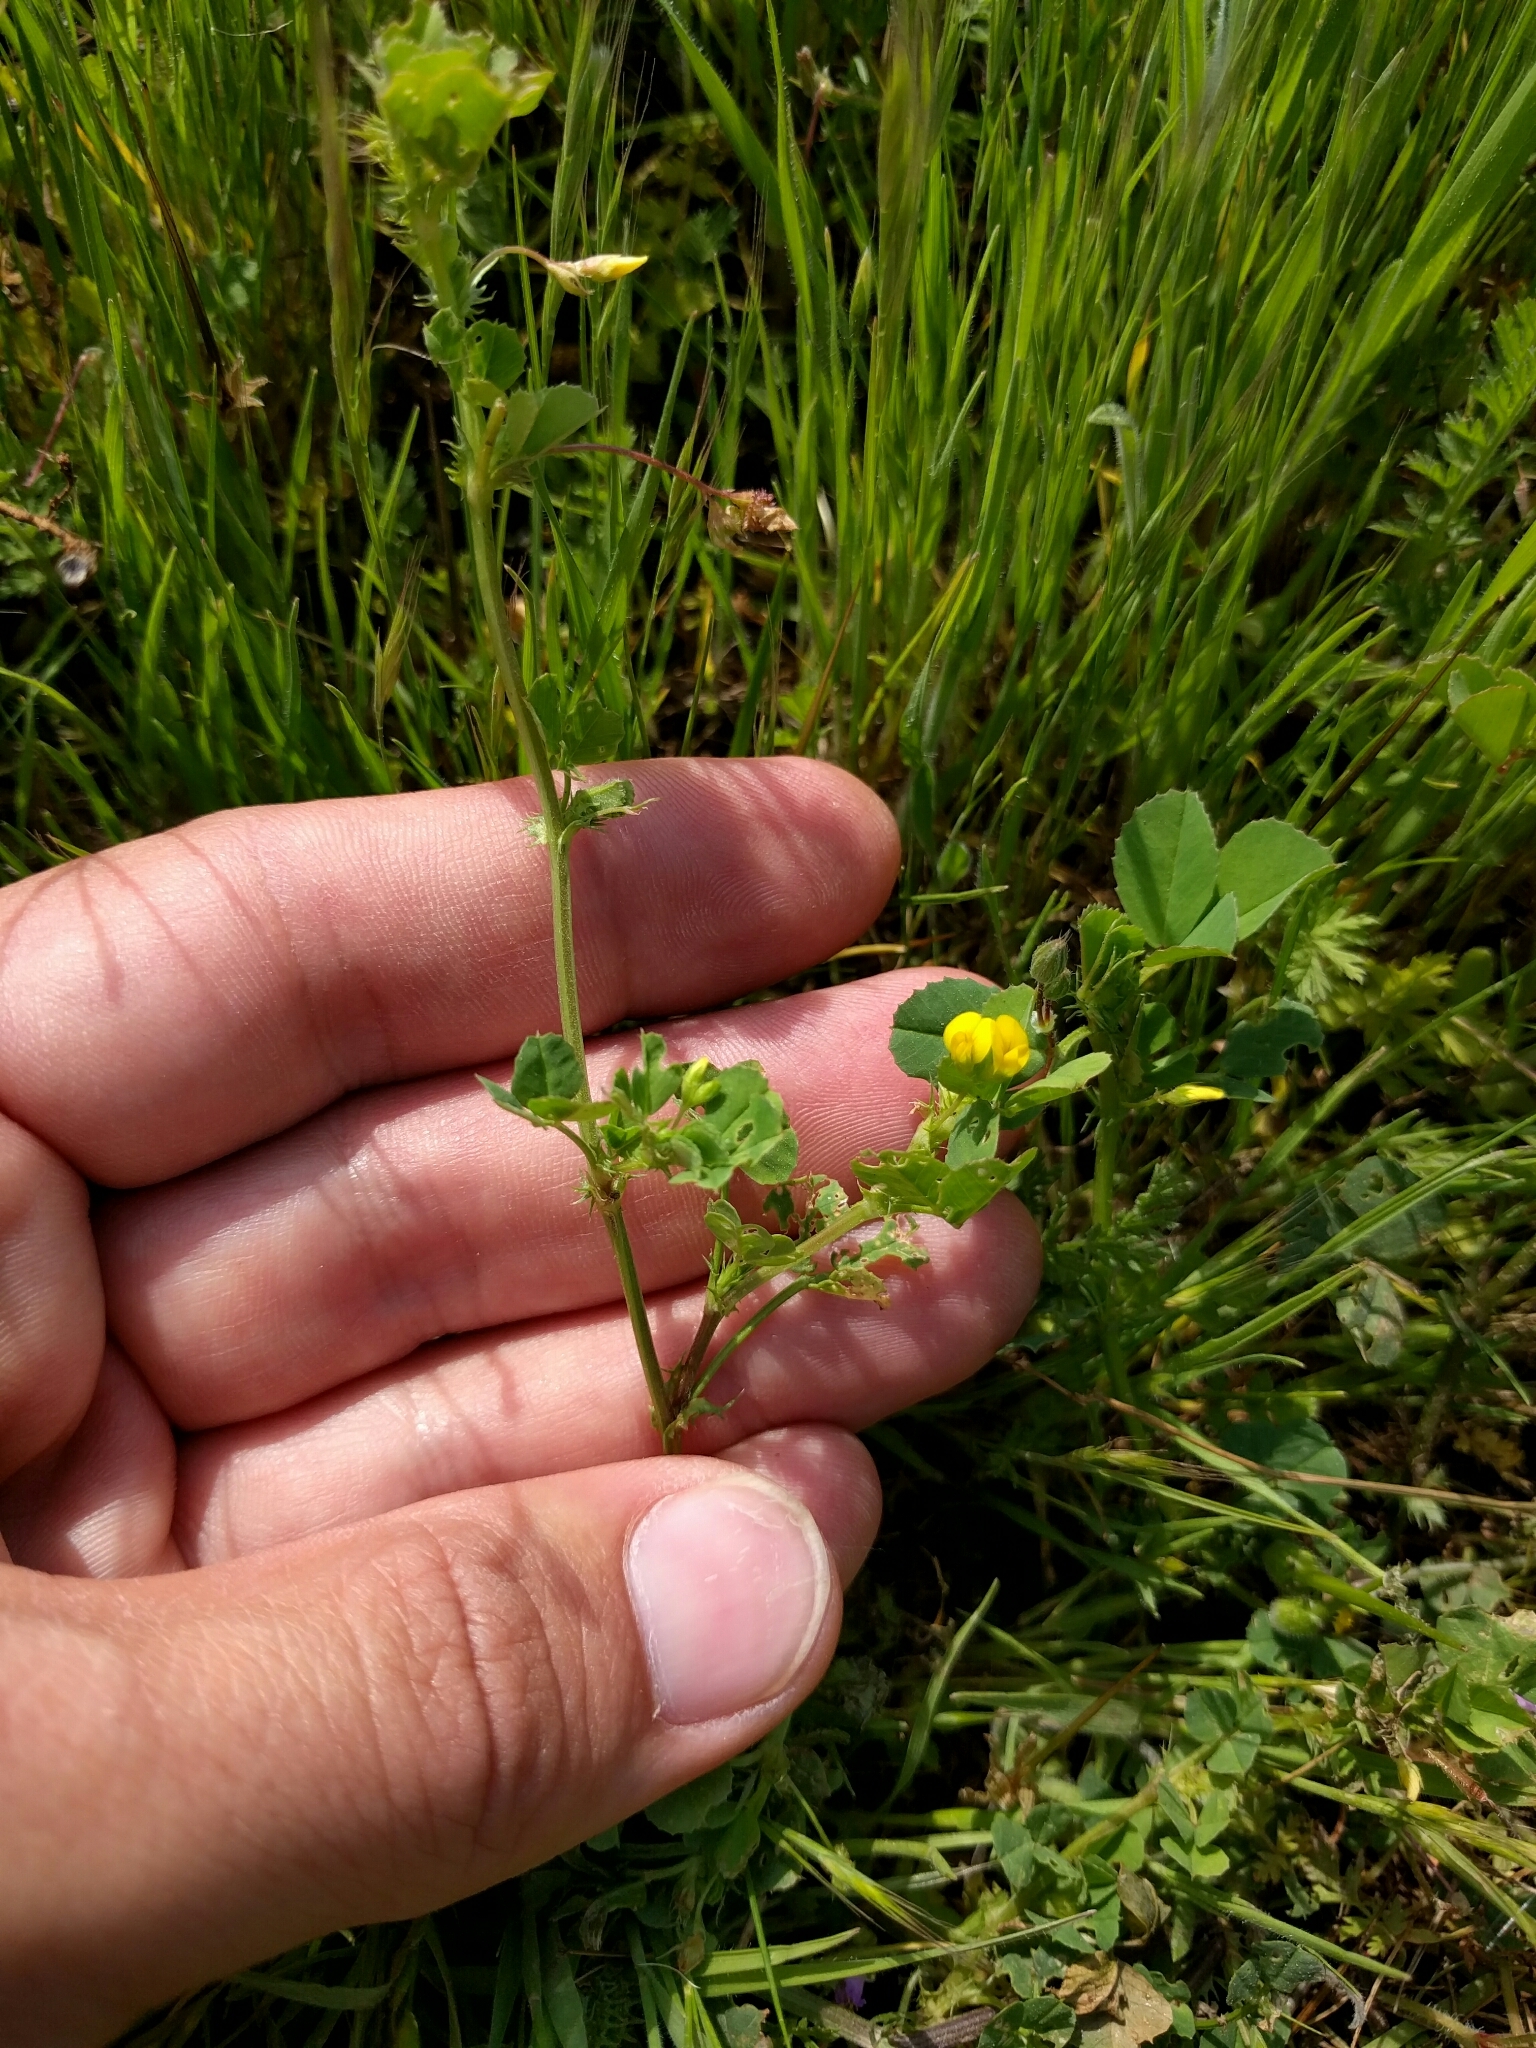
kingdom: Plantae
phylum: Tracheophyta
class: Magnoliopsida
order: Fabales
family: Fabaceae
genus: Medicago
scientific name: Medicago polymorpha
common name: Burclover
